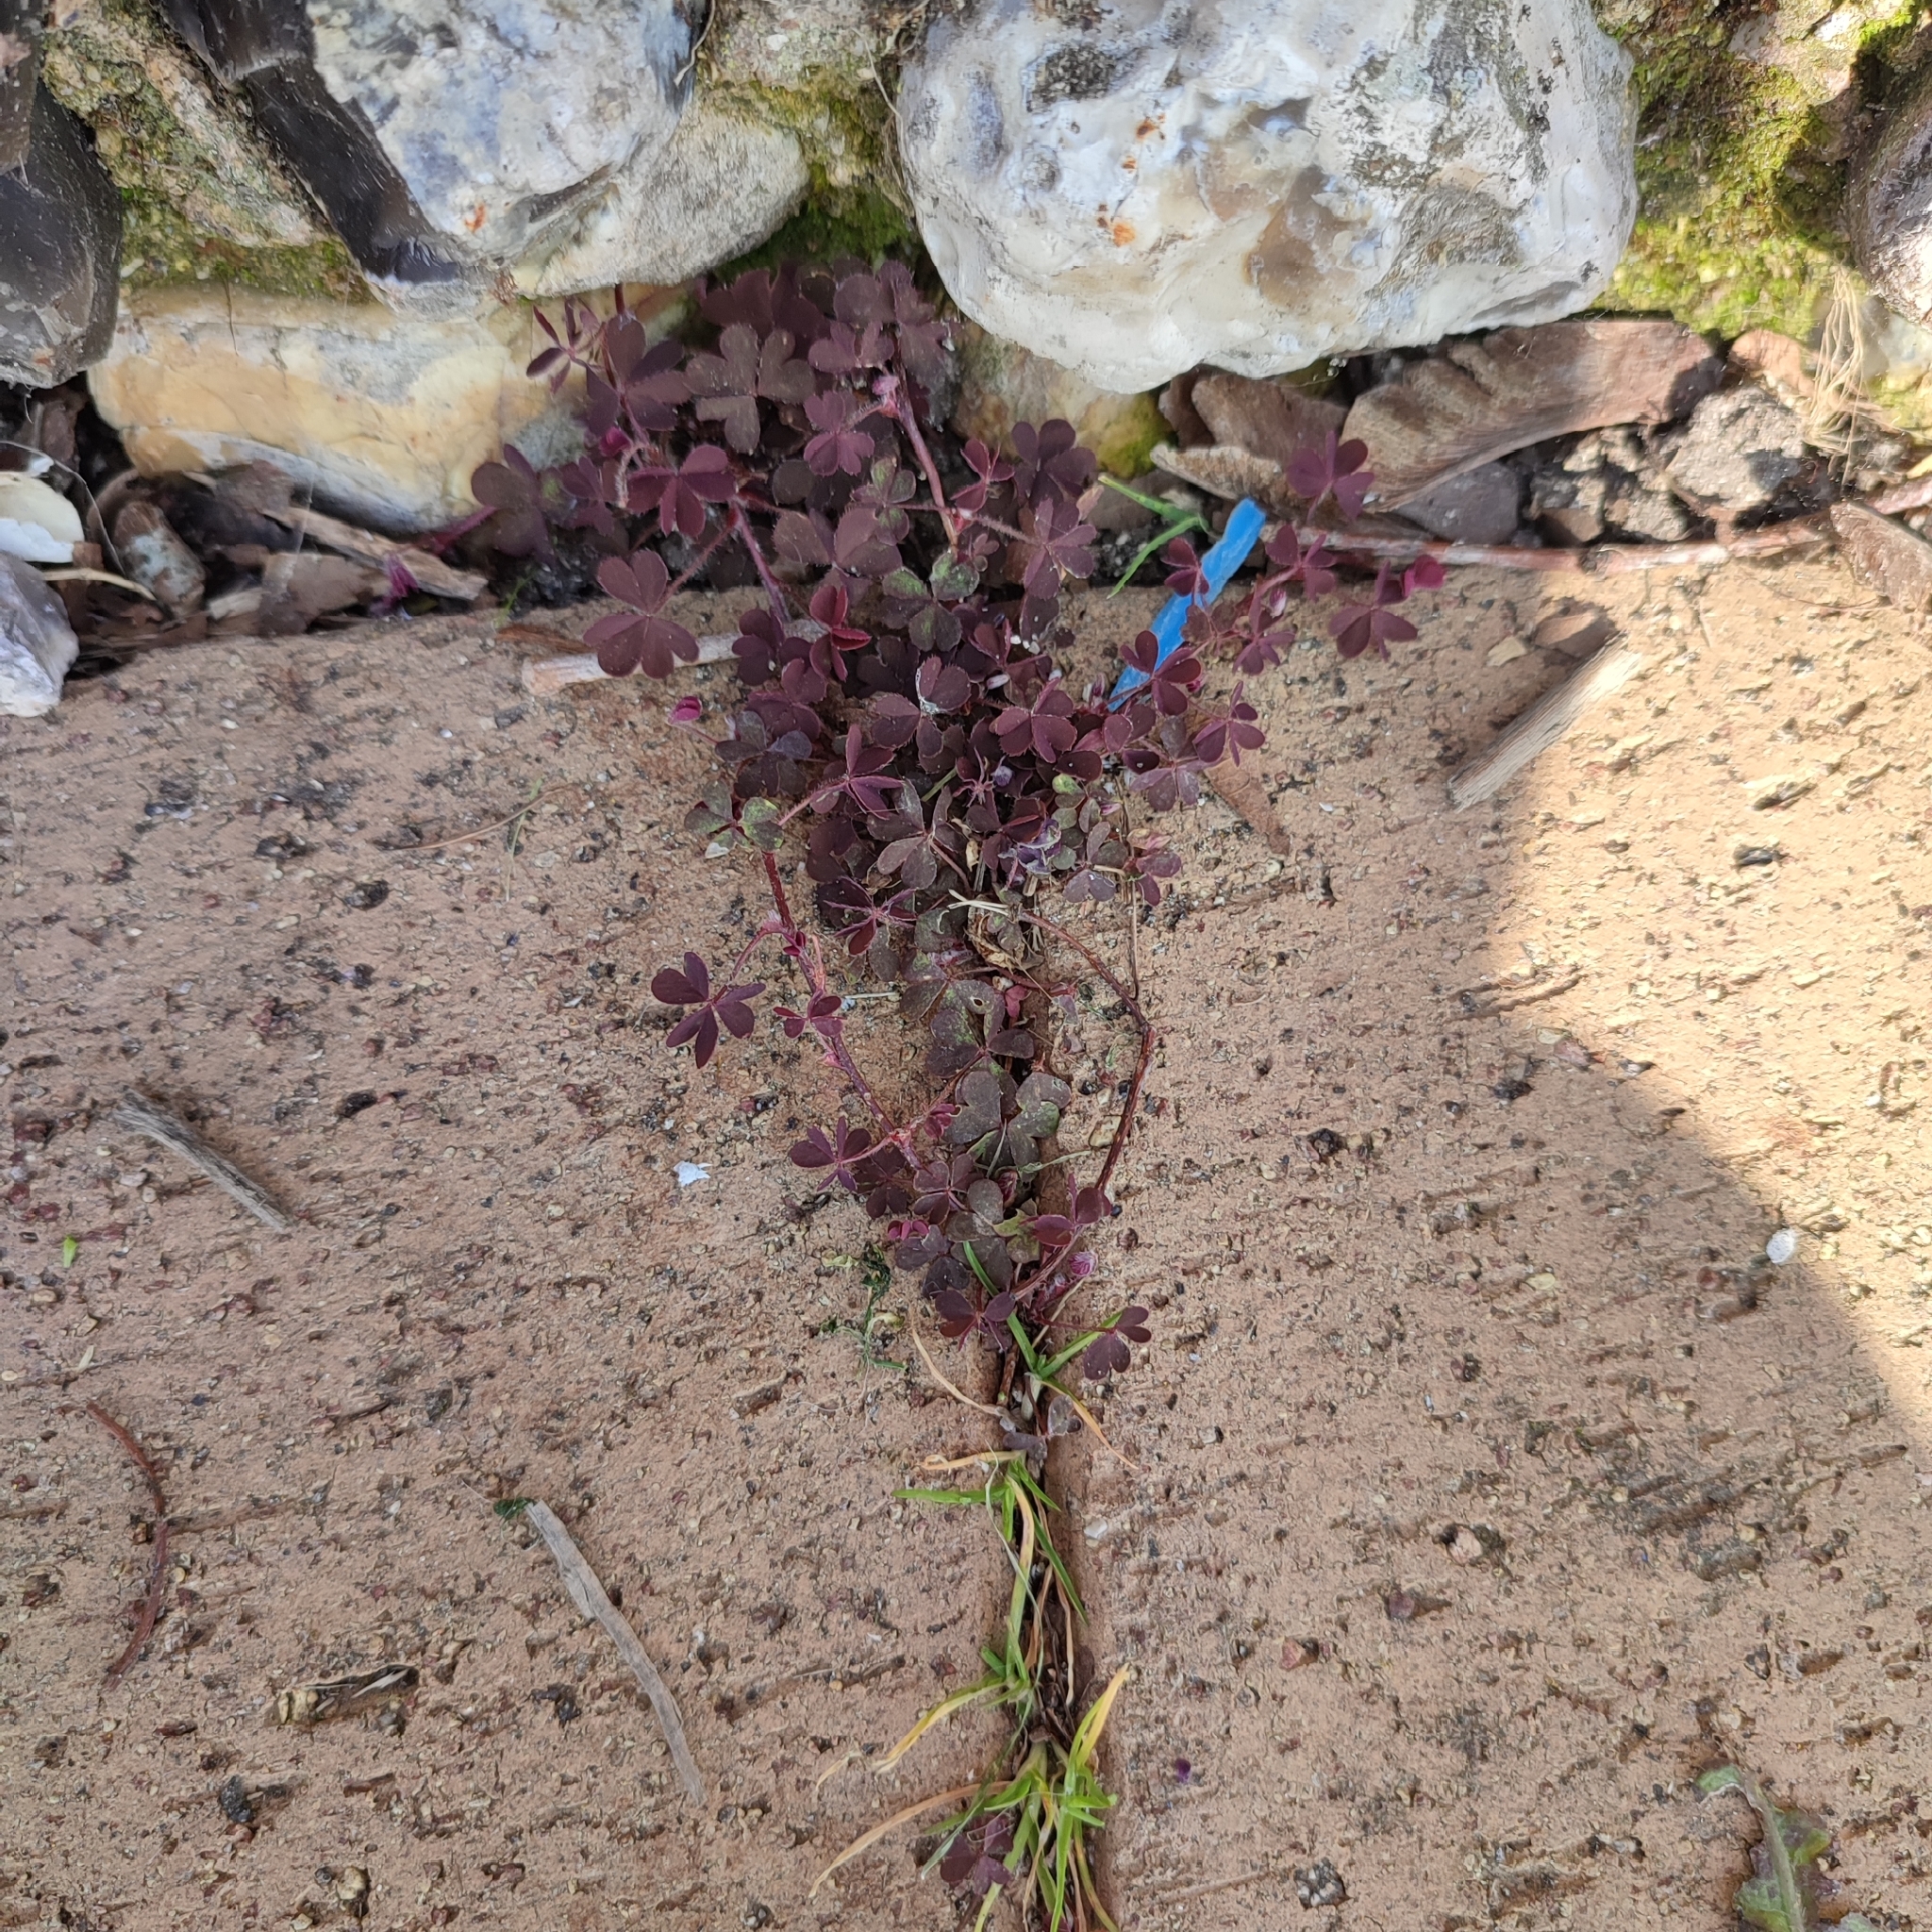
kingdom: Plantae
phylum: Tracheophyta
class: Magnoliopsida
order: Oxalidales
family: Oxalidaceae
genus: Oxalis
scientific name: Oxalis corniculata
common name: Procumbent yellow-sorrel
